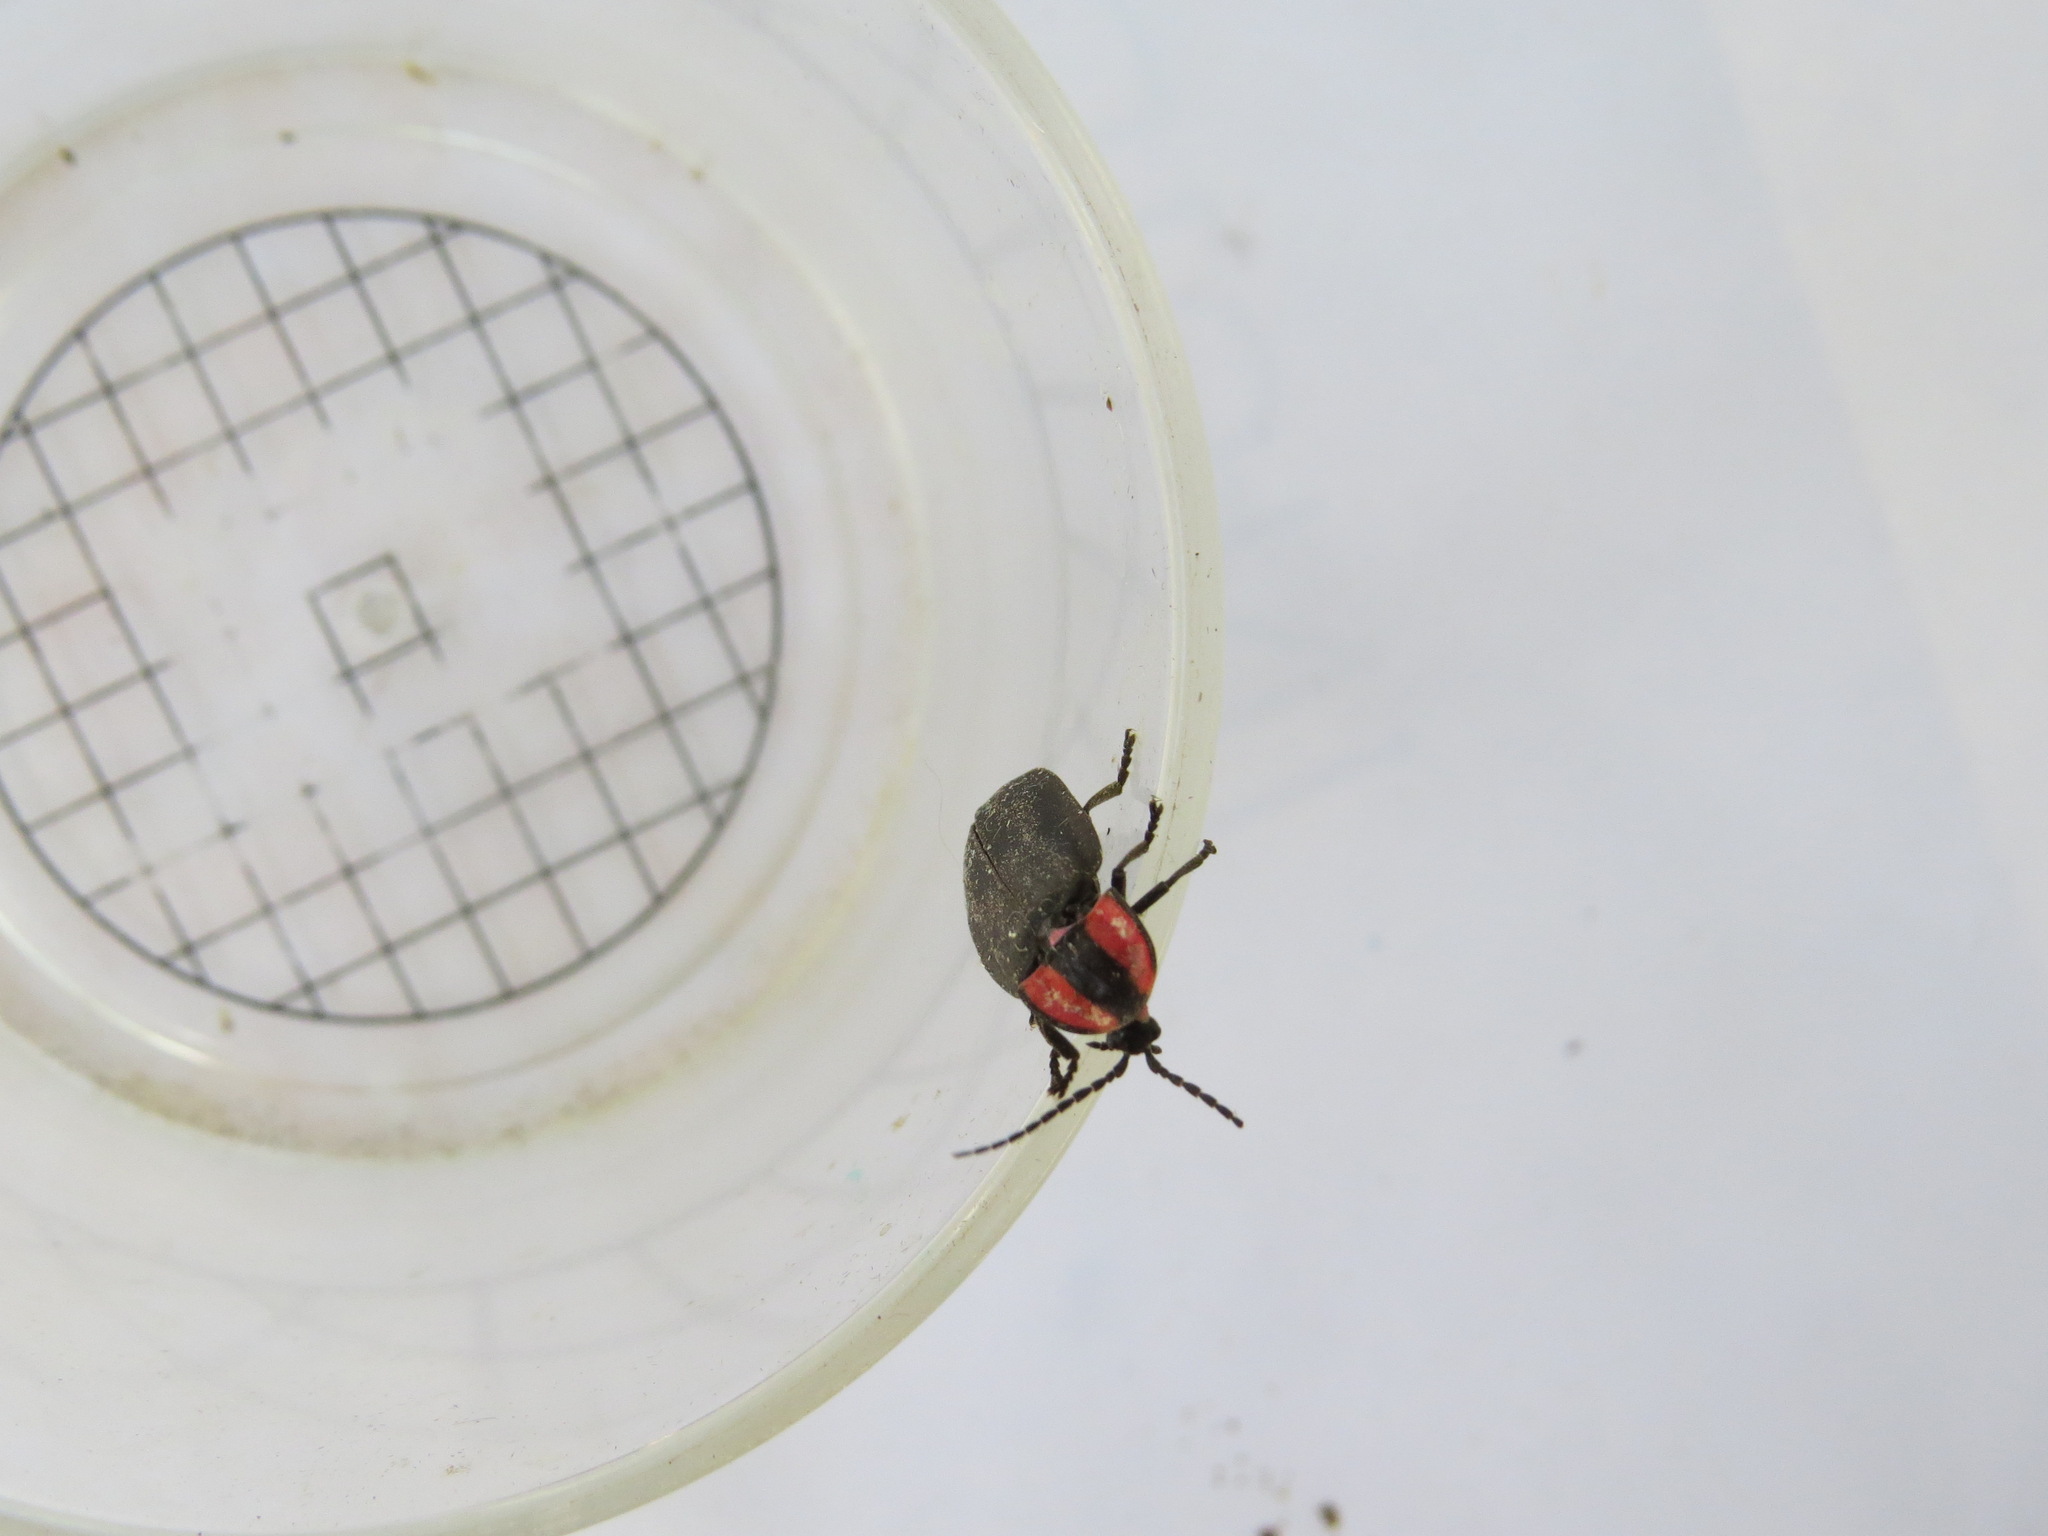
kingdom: Animalia
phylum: Arthropoda
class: Insecta
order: Coleoptera
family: Lampyridae
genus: Ellychnia
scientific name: Ellychnia megista
